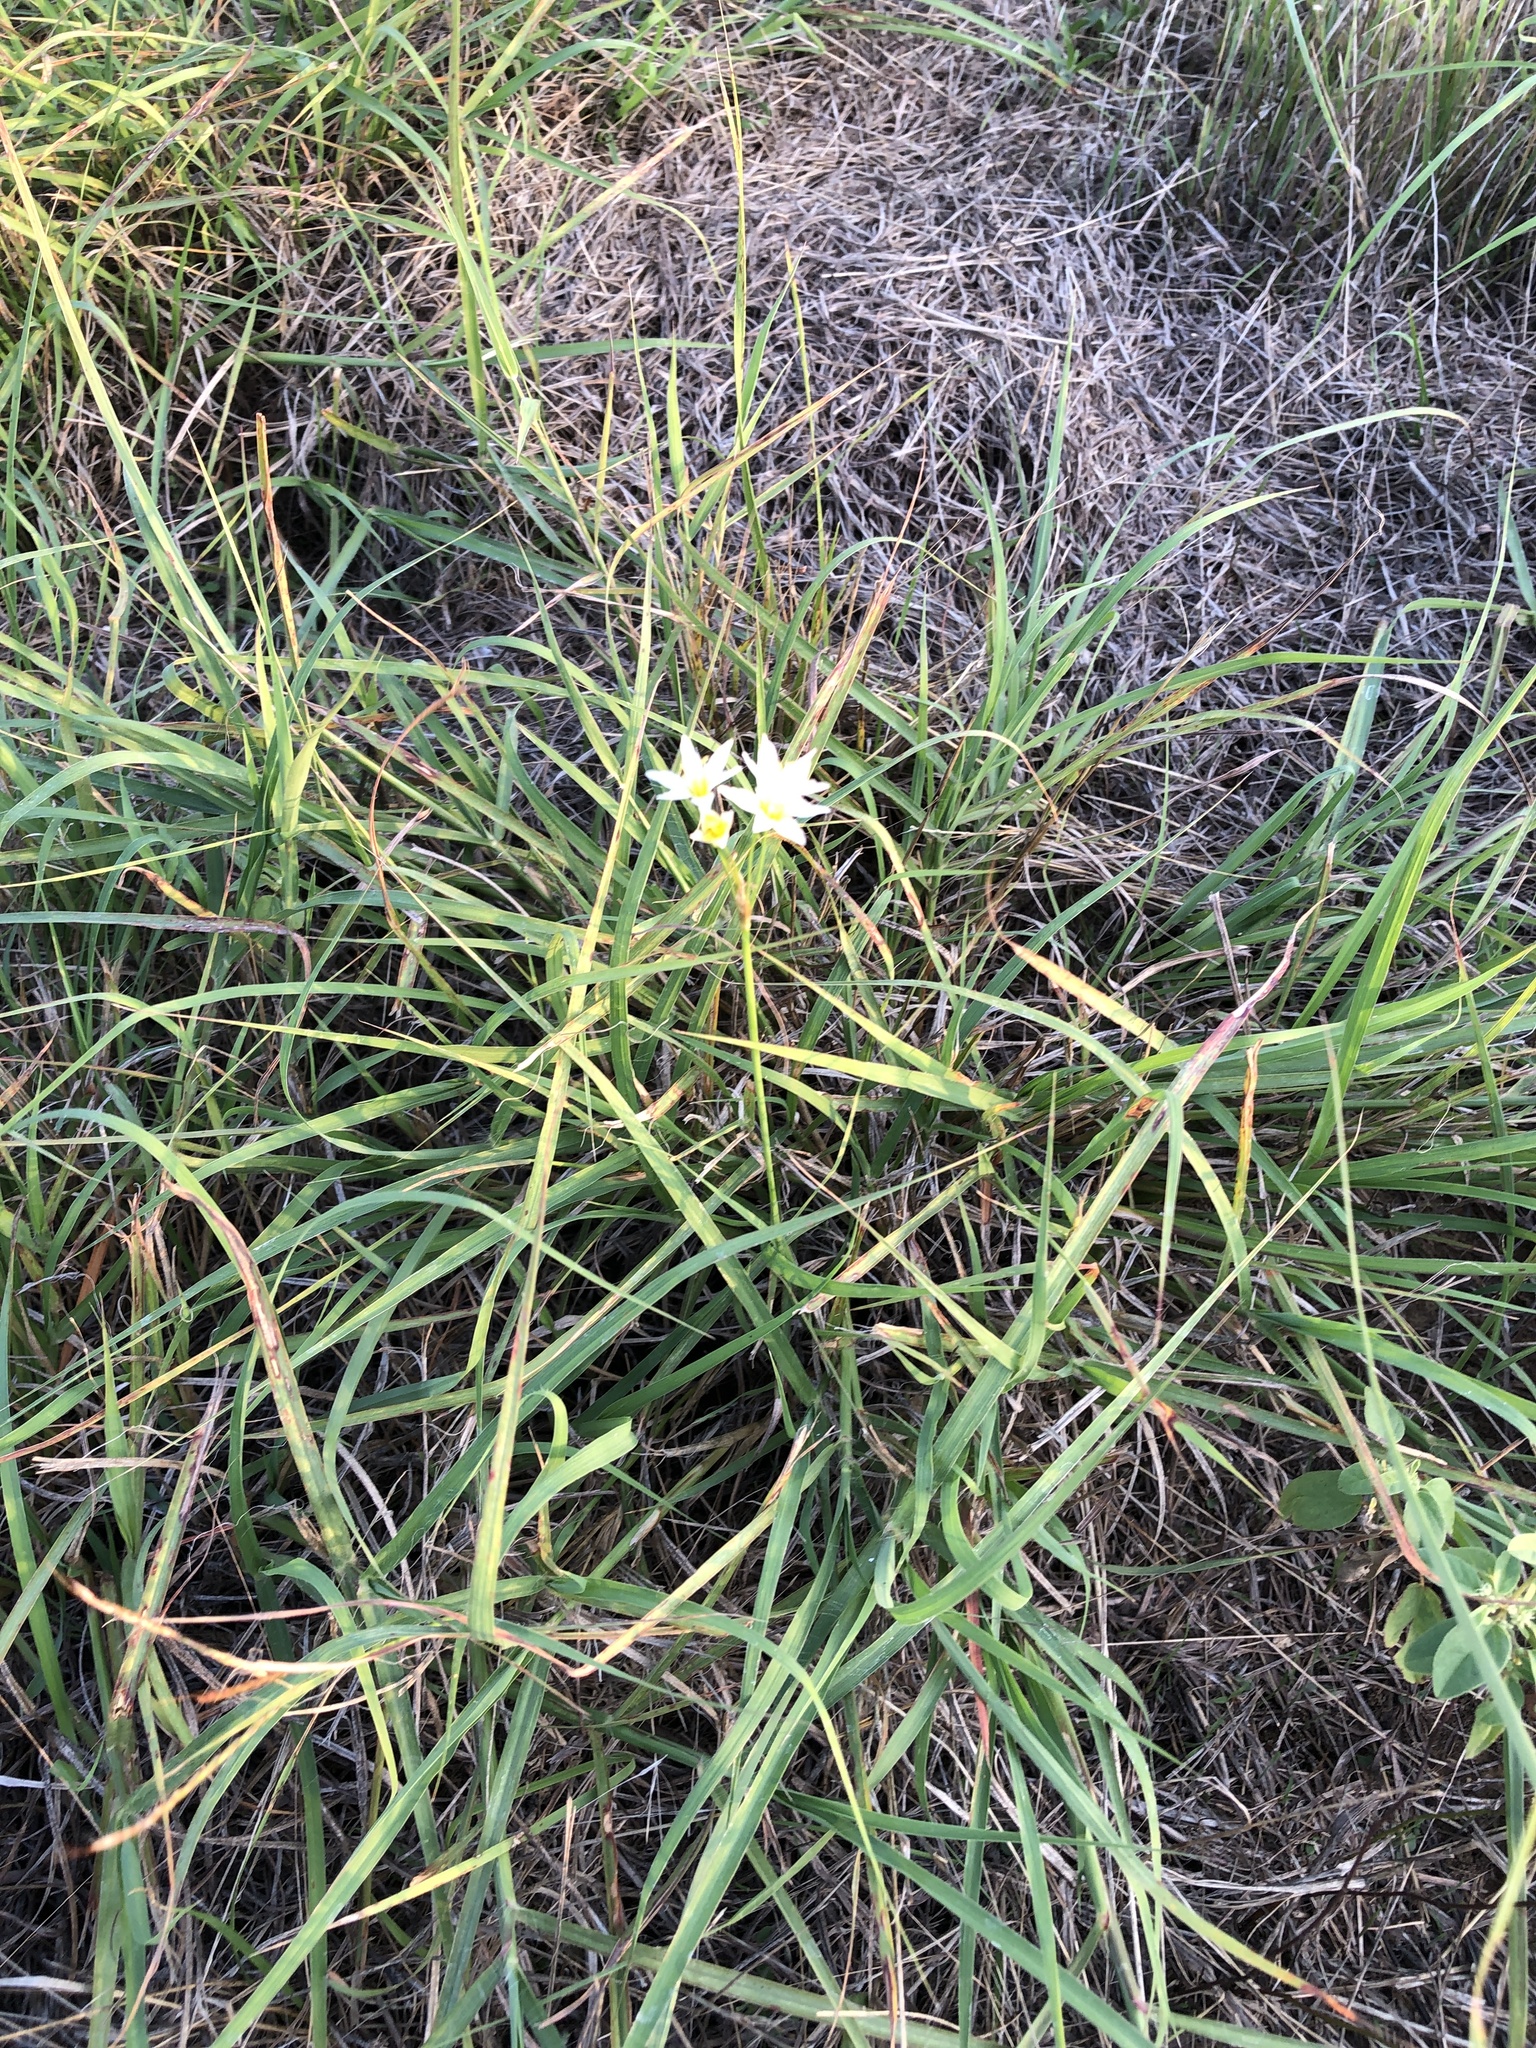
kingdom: Plantae
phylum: Tracheophyta
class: Liliopsida
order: Asparagales
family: Amaryllidaceae
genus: Nothoscordum
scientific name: Nothoscordum bivalve
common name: Crow-poison
